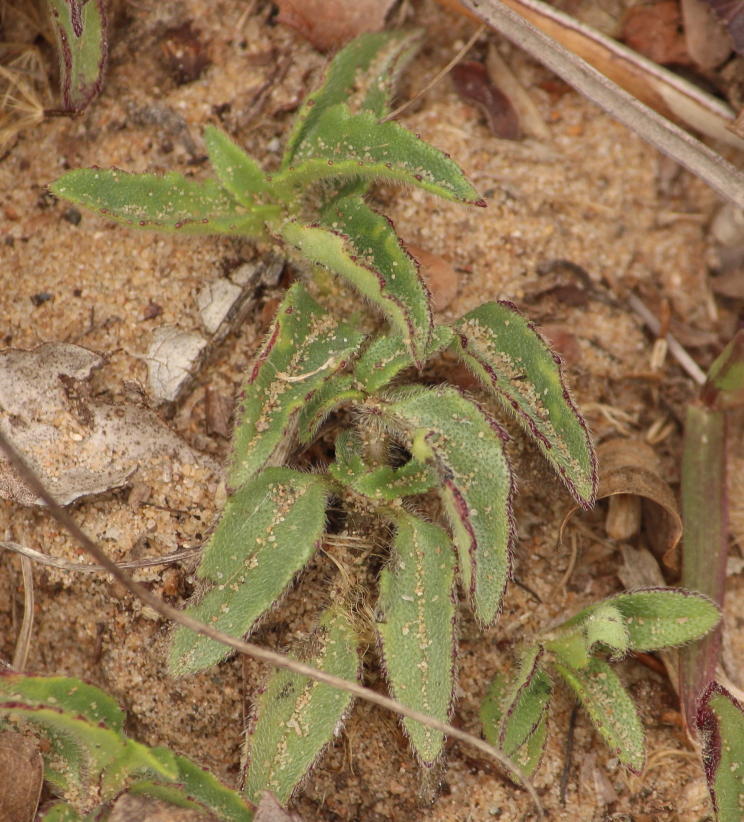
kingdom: Plantae
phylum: Tracheophyta
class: Magnoliopsida
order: Asterales
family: Asteraceae
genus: Tridax
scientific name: Tridax procumbens
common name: Coatbuttons
